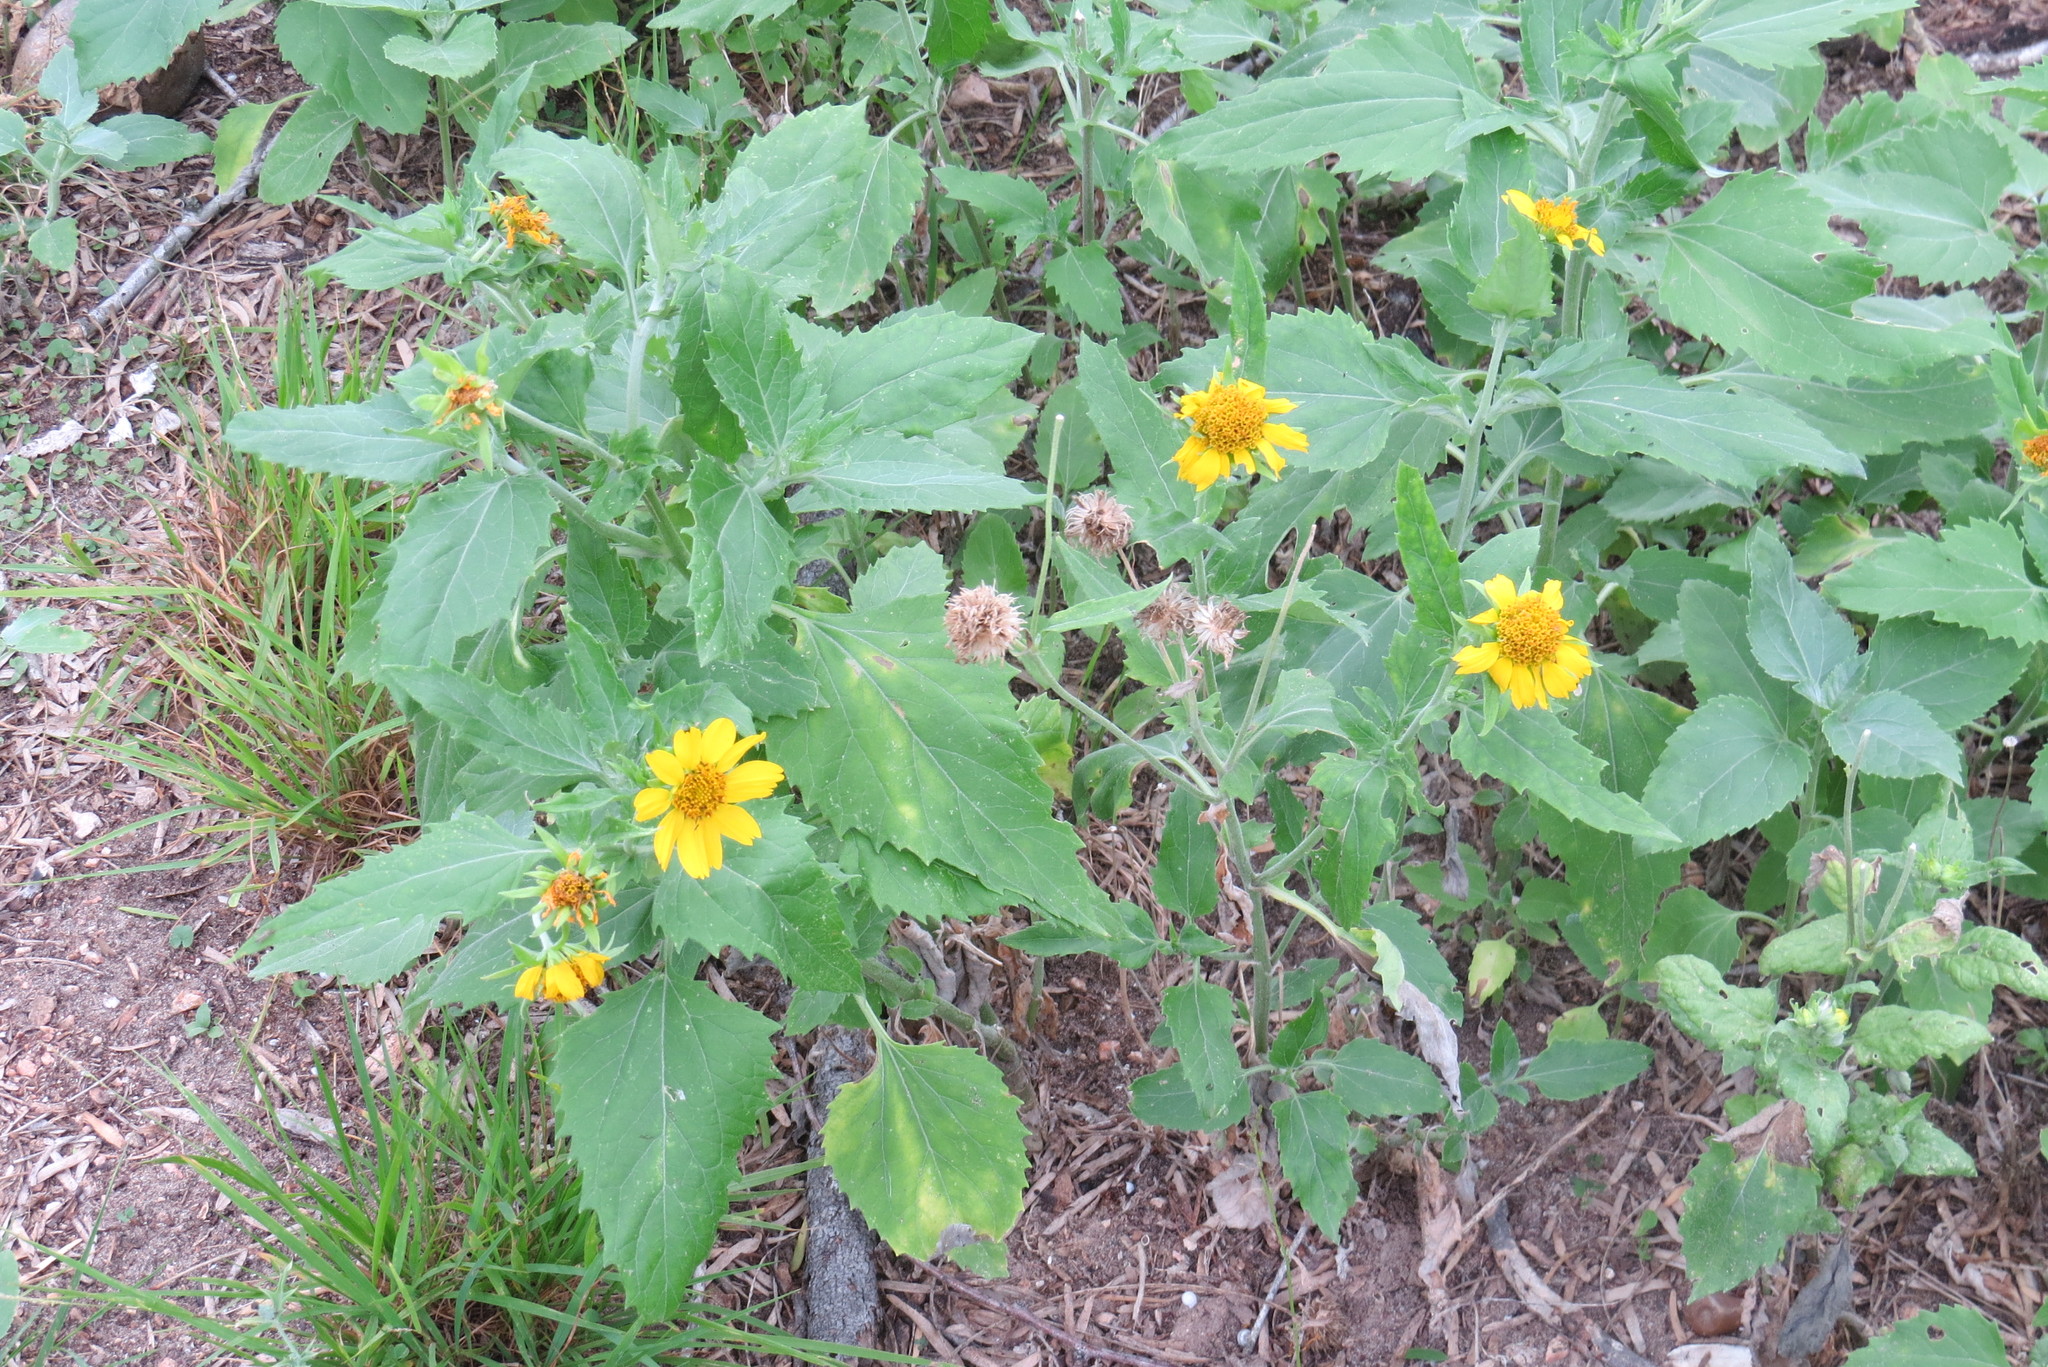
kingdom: Plantae
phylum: Tracheophyta
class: Magnoliopsida
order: Asterales
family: Asteraceae
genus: Verbesina
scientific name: Verbesina encelioides
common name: Golden crownbeard
